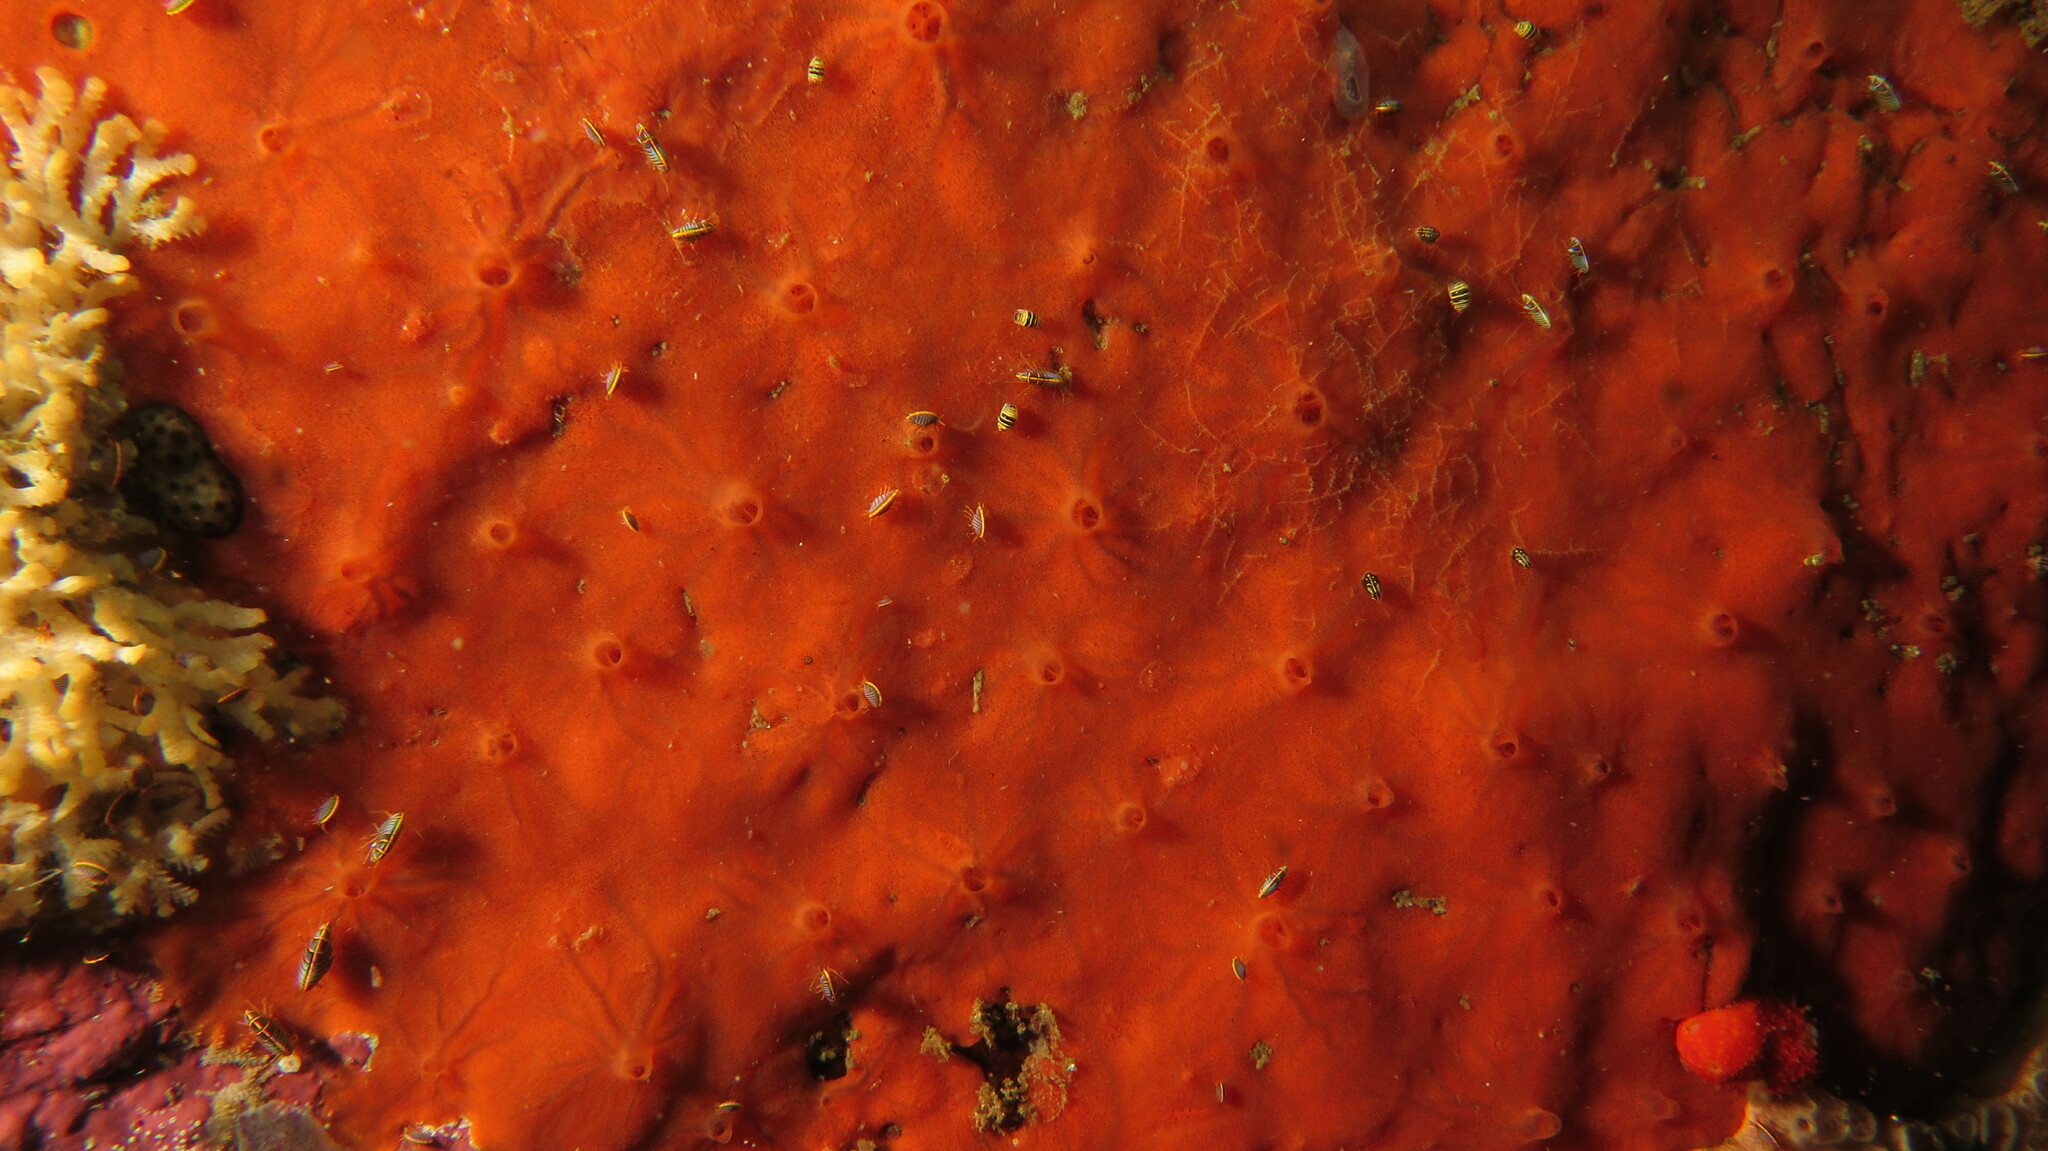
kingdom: Animalia
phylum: Porifera
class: Demospongiae
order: Poecilosclerida
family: Microcionidae
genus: Clathria
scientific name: Clathria oudekraalensis
